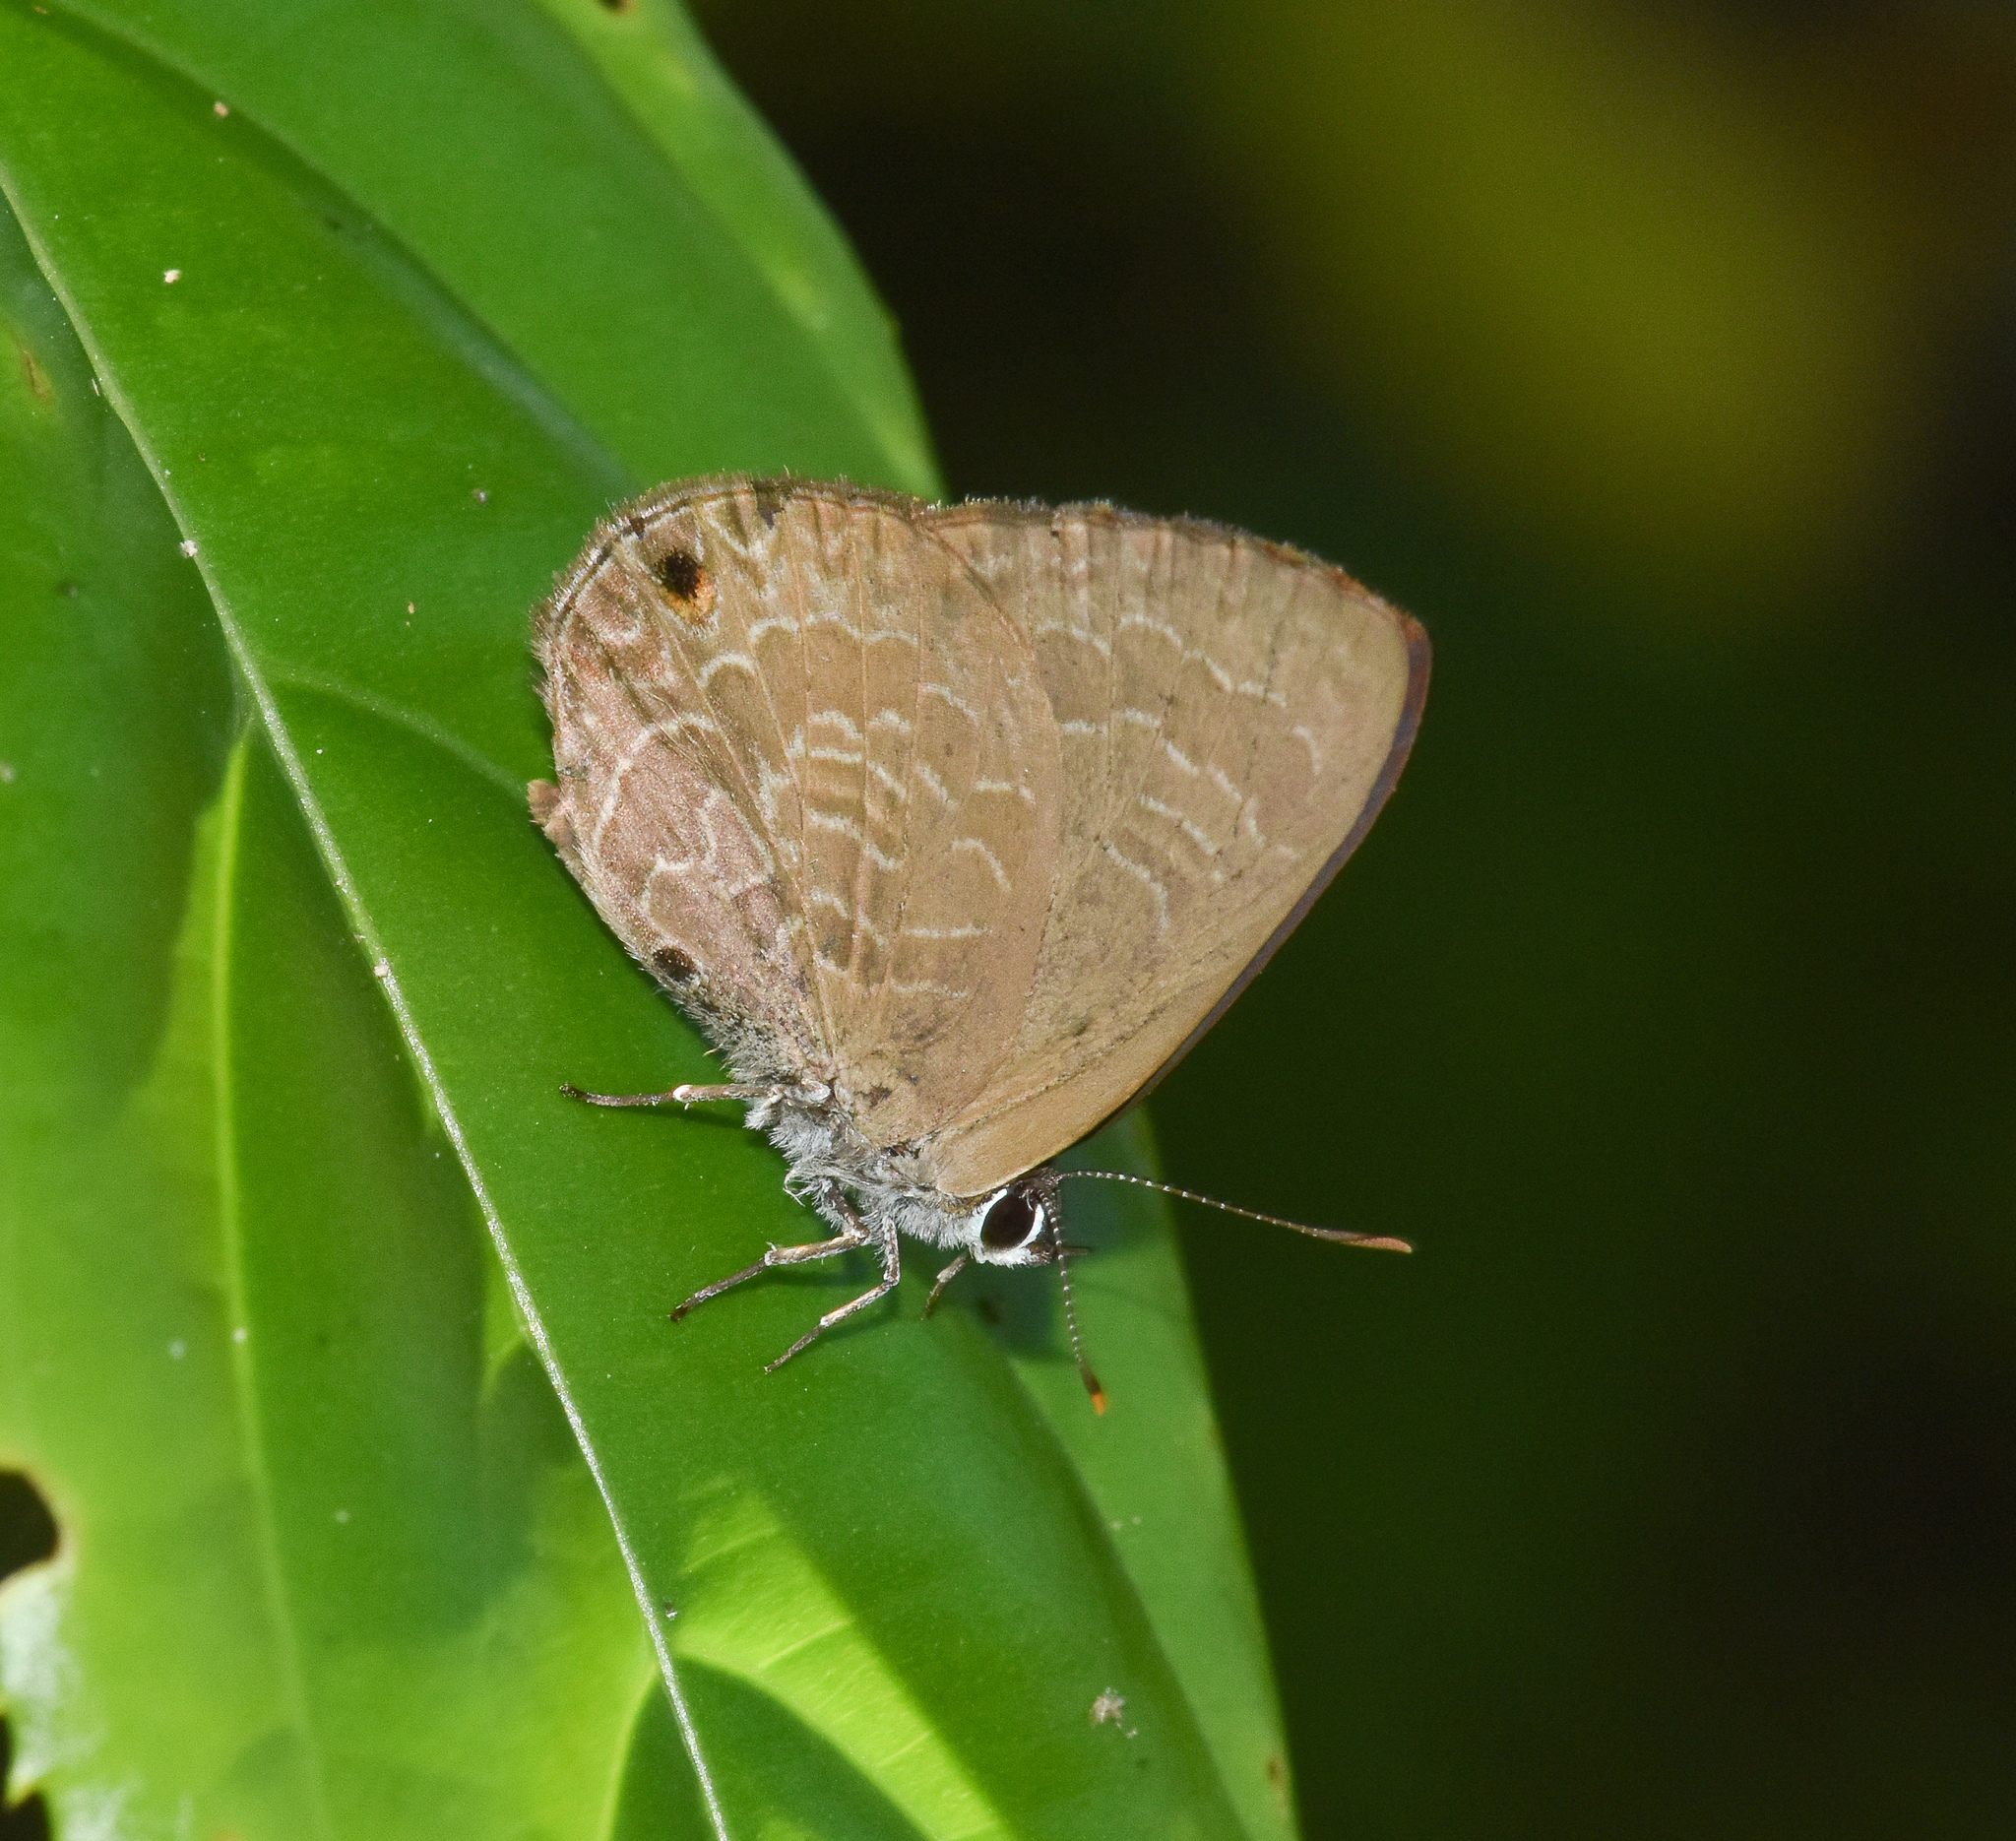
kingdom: Animalia
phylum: Arthropoda
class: Insecta
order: Lepidoptera
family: Lycaenidae
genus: Anthene
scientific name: Anthene emolus
